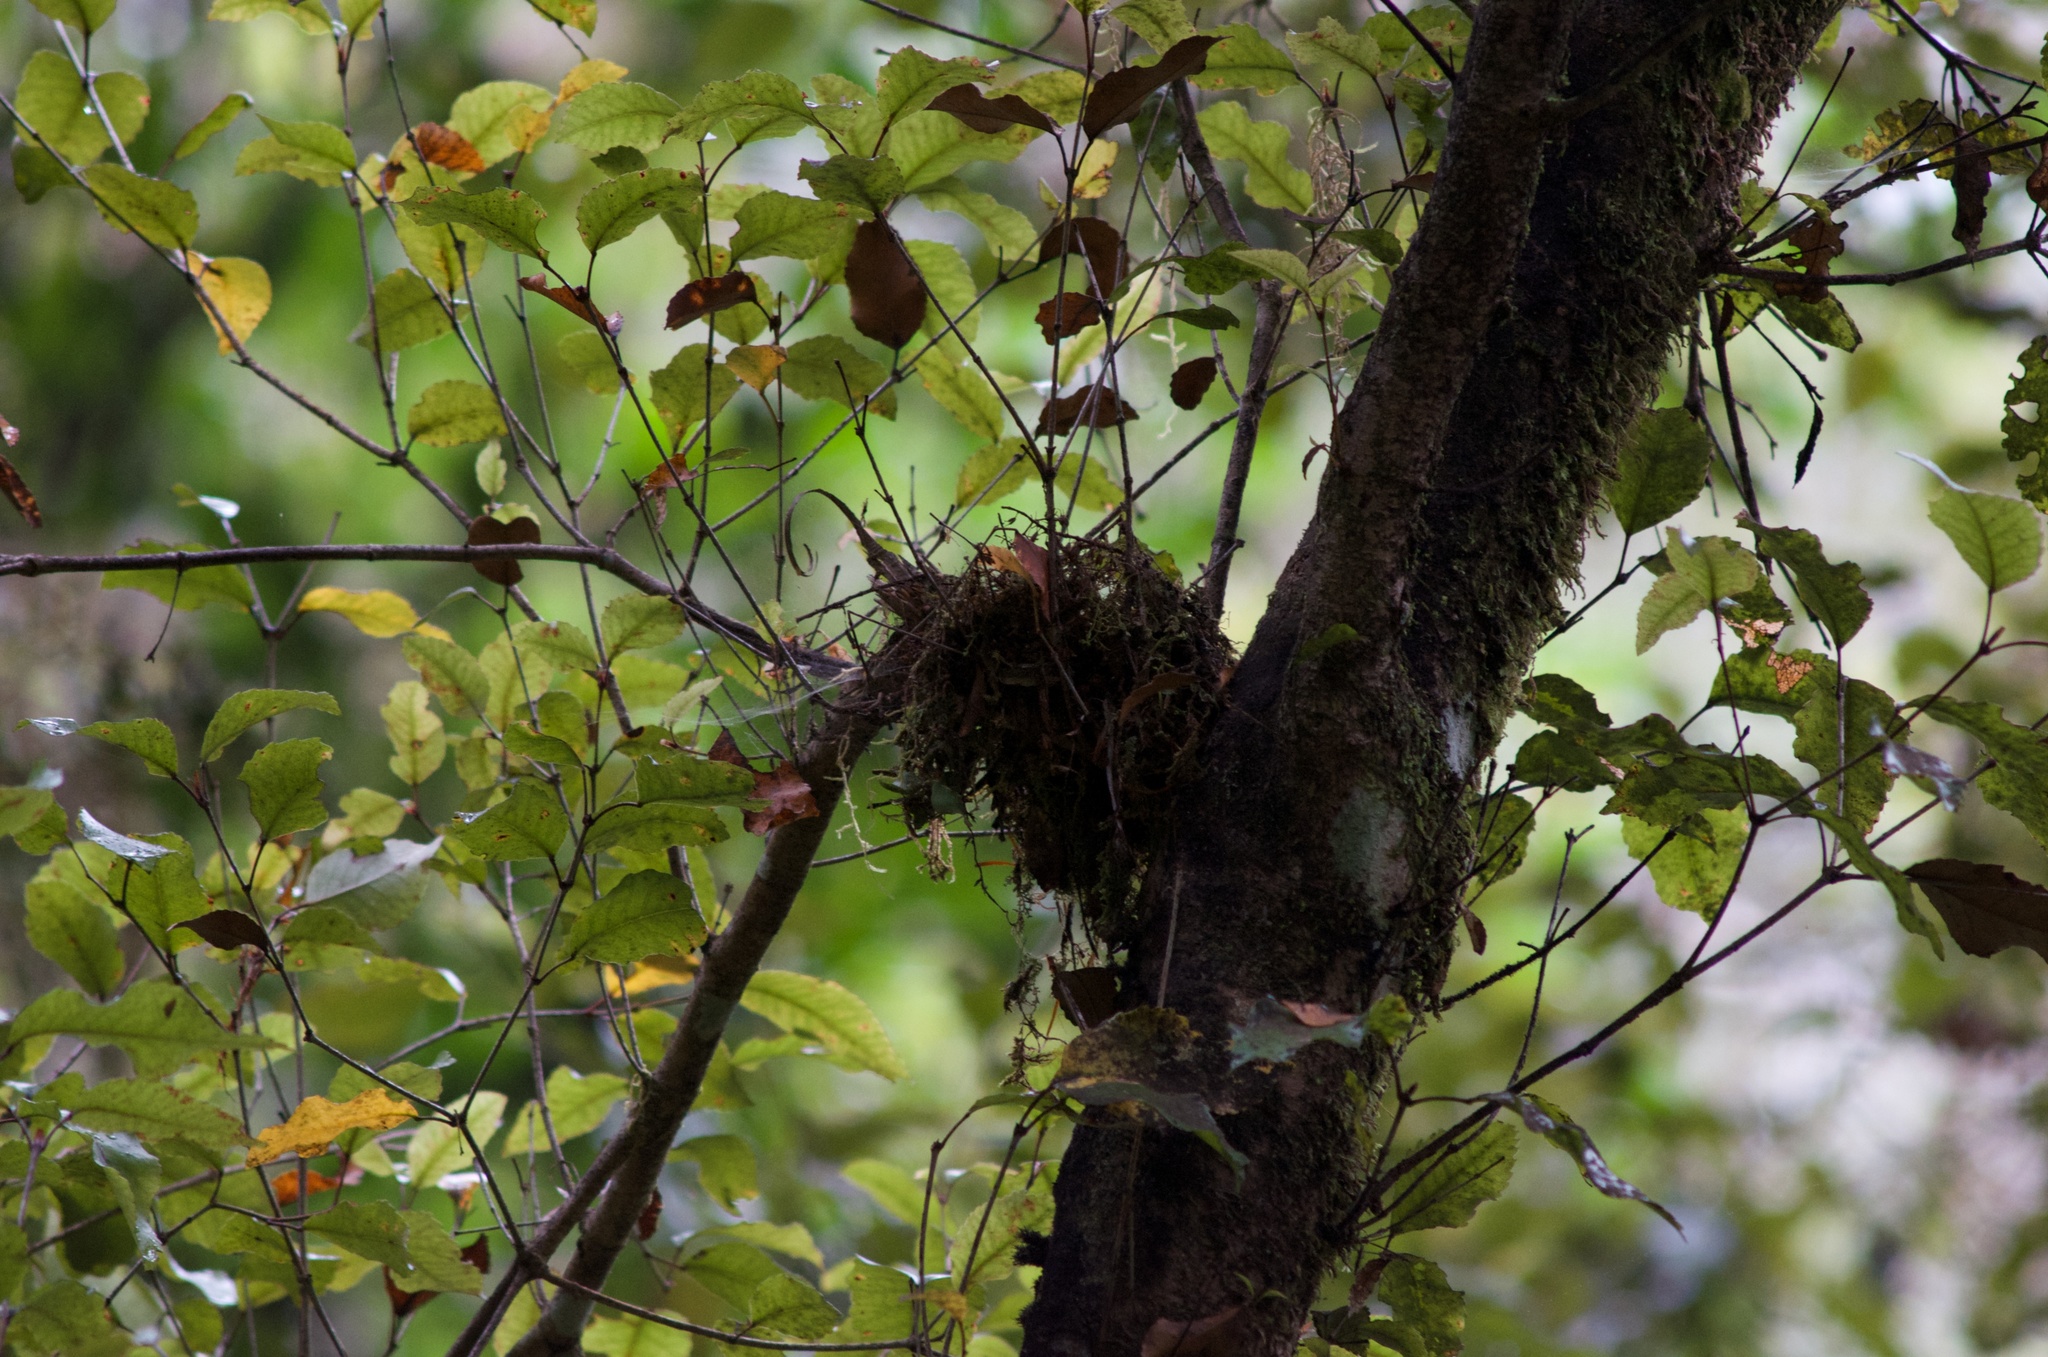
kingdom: Plantae
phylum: Tracheophyta
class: Magnoliopsida
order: Oxalidales
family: Cunoniaceae
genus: Pterophylla
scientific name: Pterophylla racemosa
